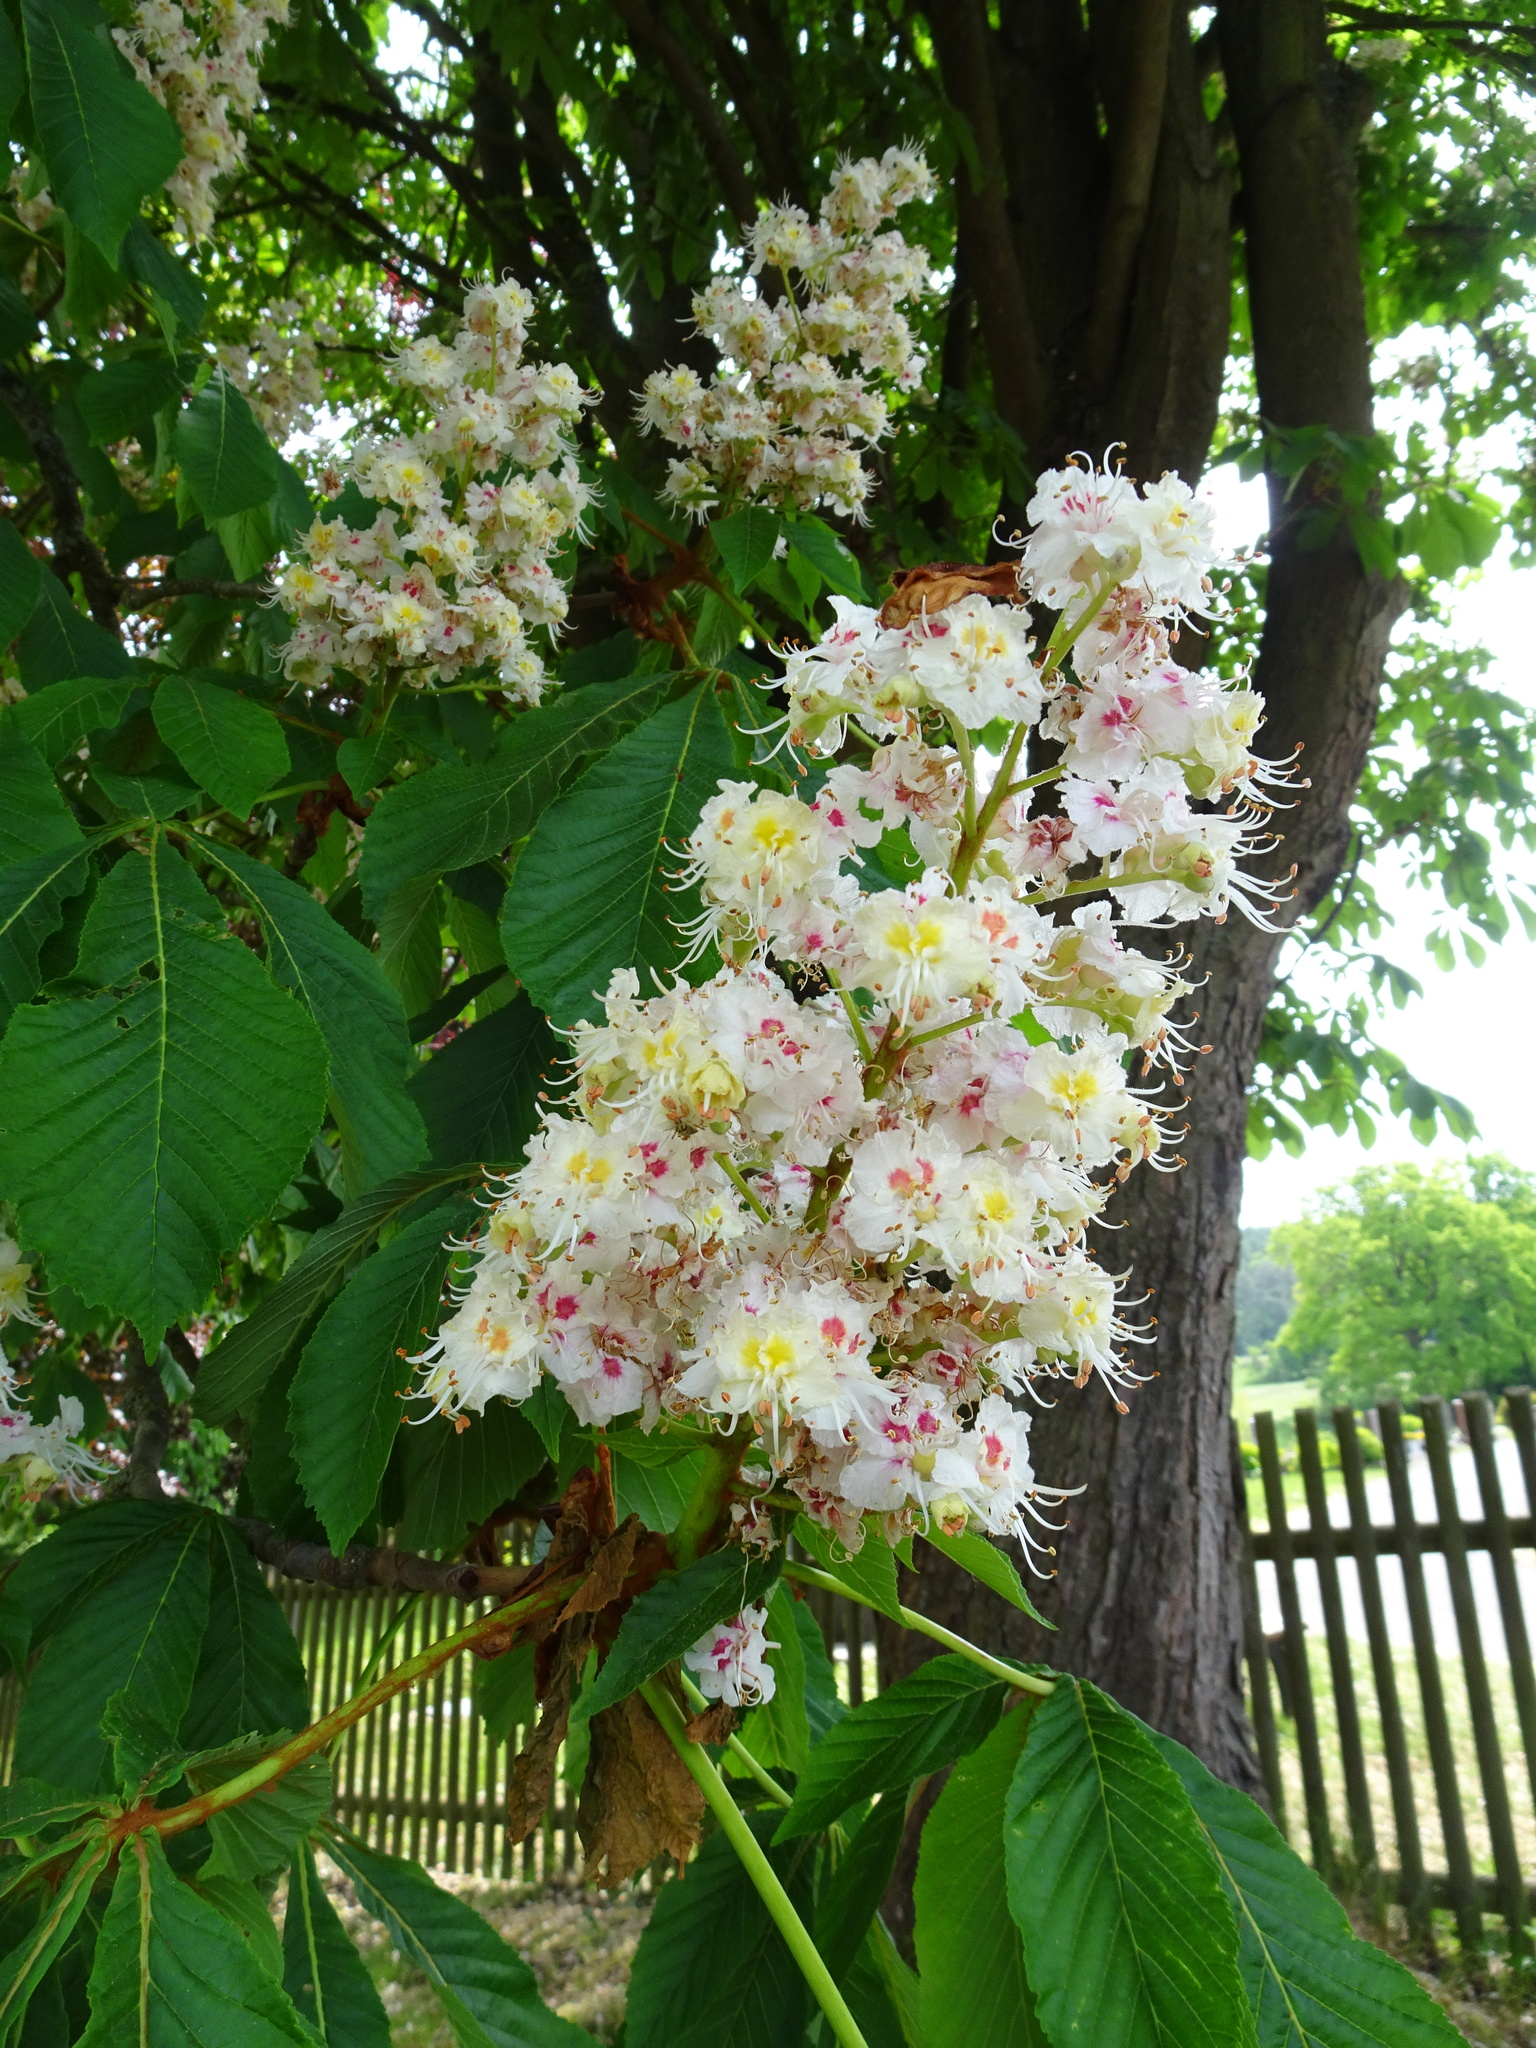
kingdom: Plantae
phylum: Tracheophyta
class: Magnoliopsida
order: Sapindales
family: Sapindaceae
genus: Aesculus
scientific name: Aesculus hippocastanum
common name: Horse-chestnut
